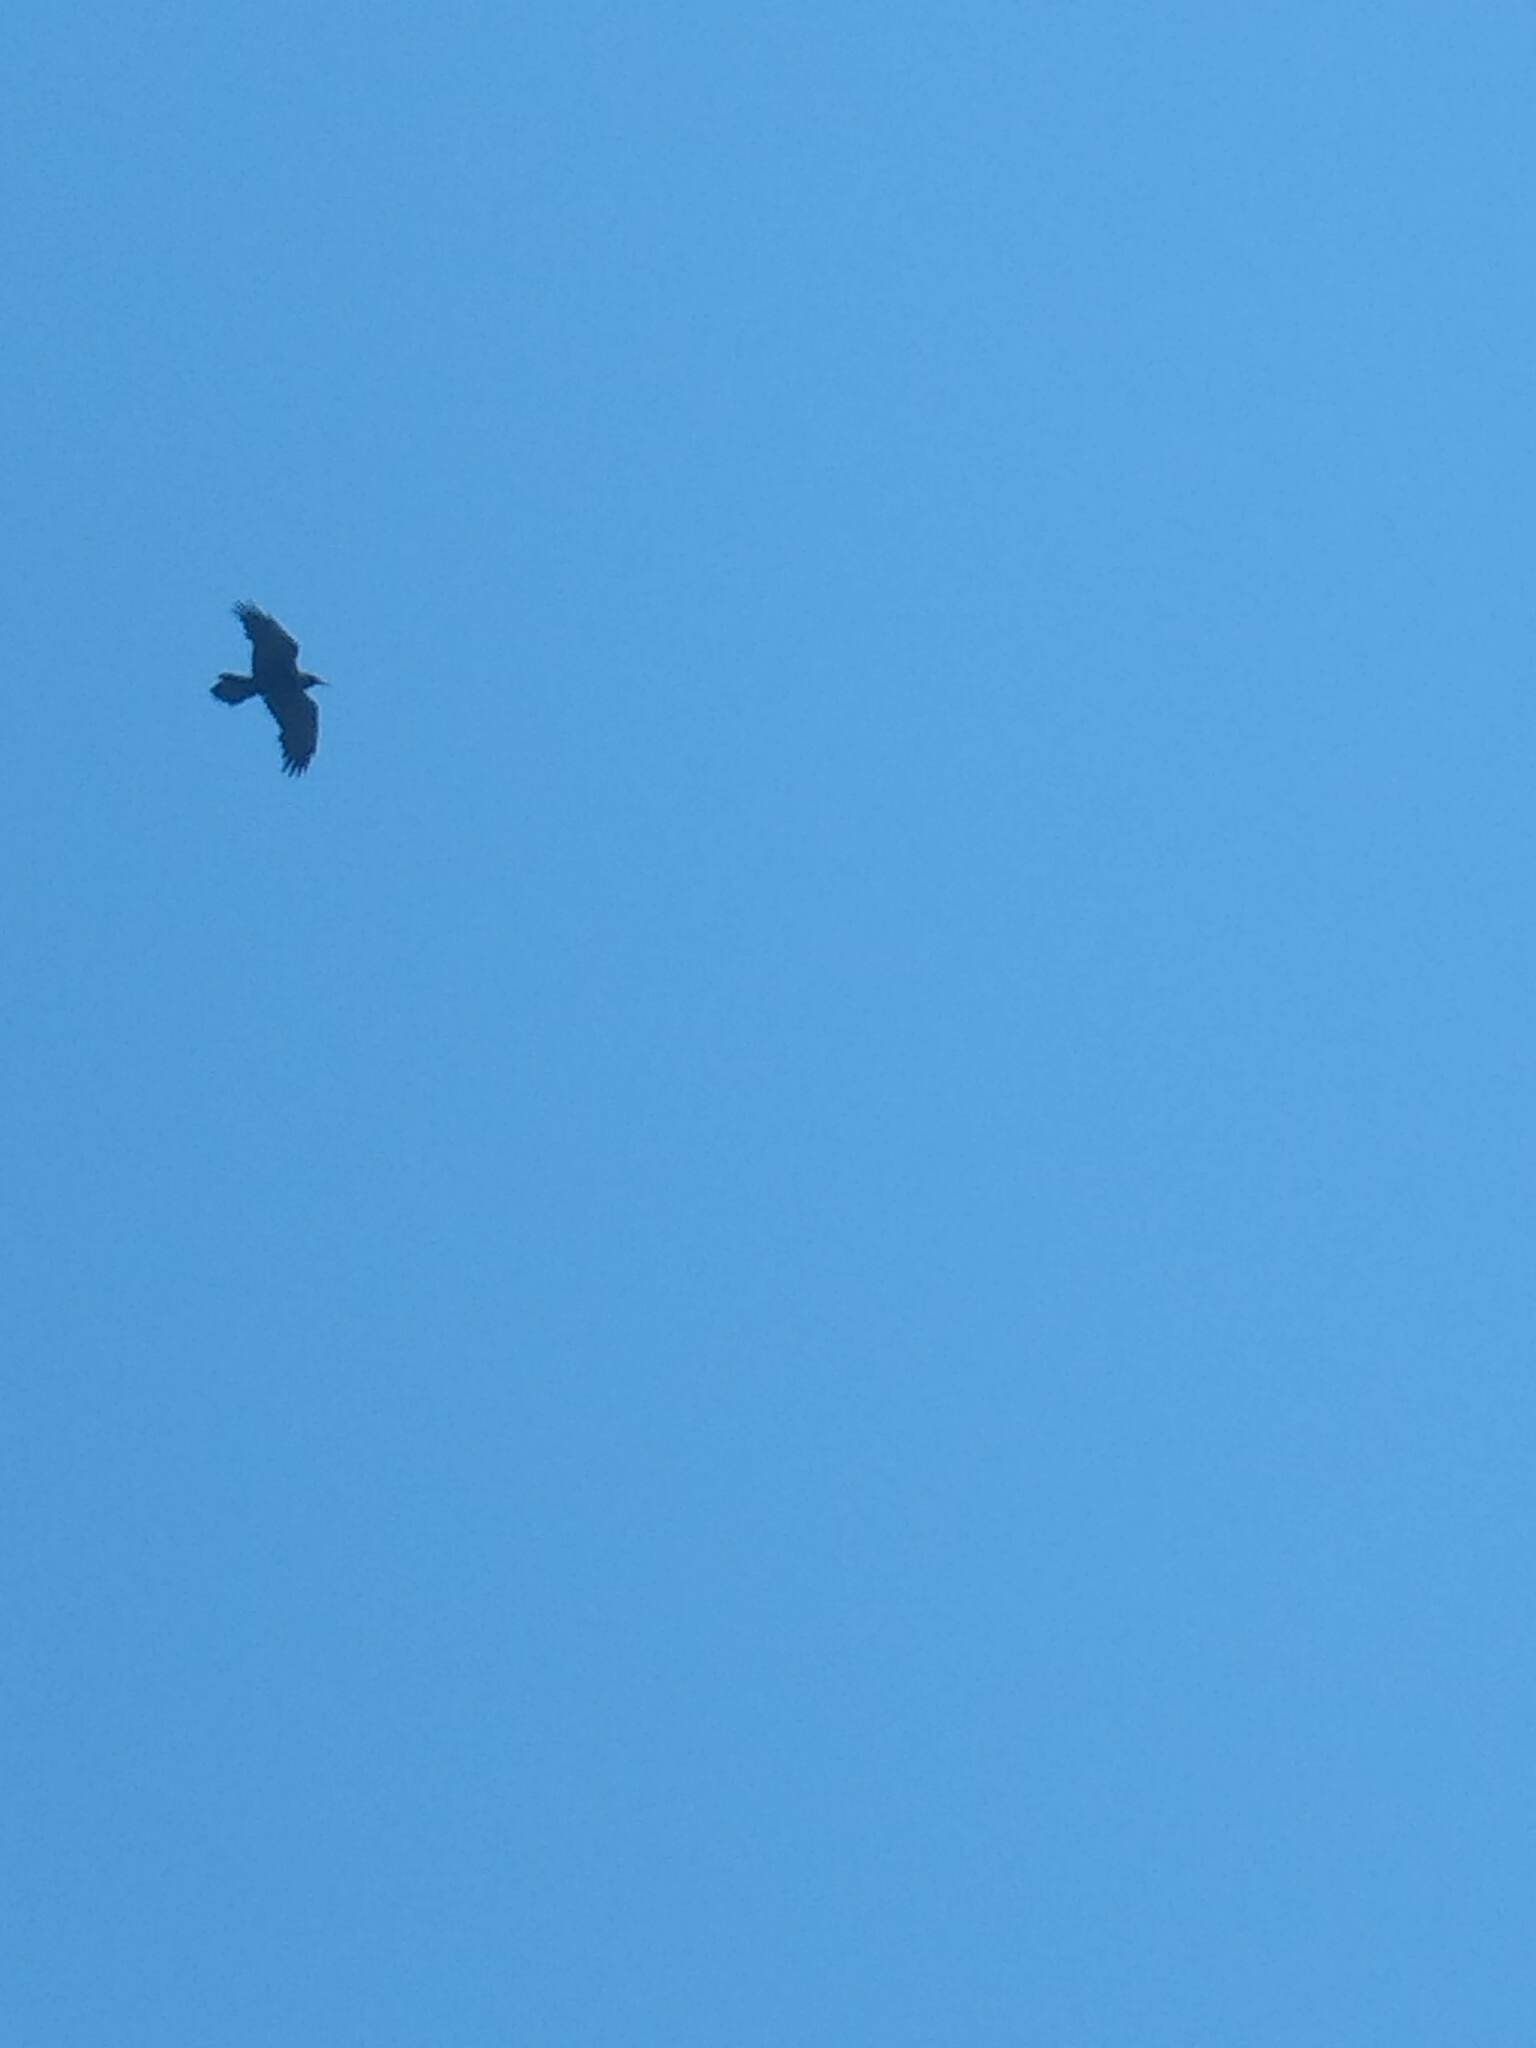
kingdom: Animalia
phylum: Chordata
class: Aves
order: Passeriformes
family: Corvidae
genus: Corvus
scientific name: Corvus corax
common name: Common raven
